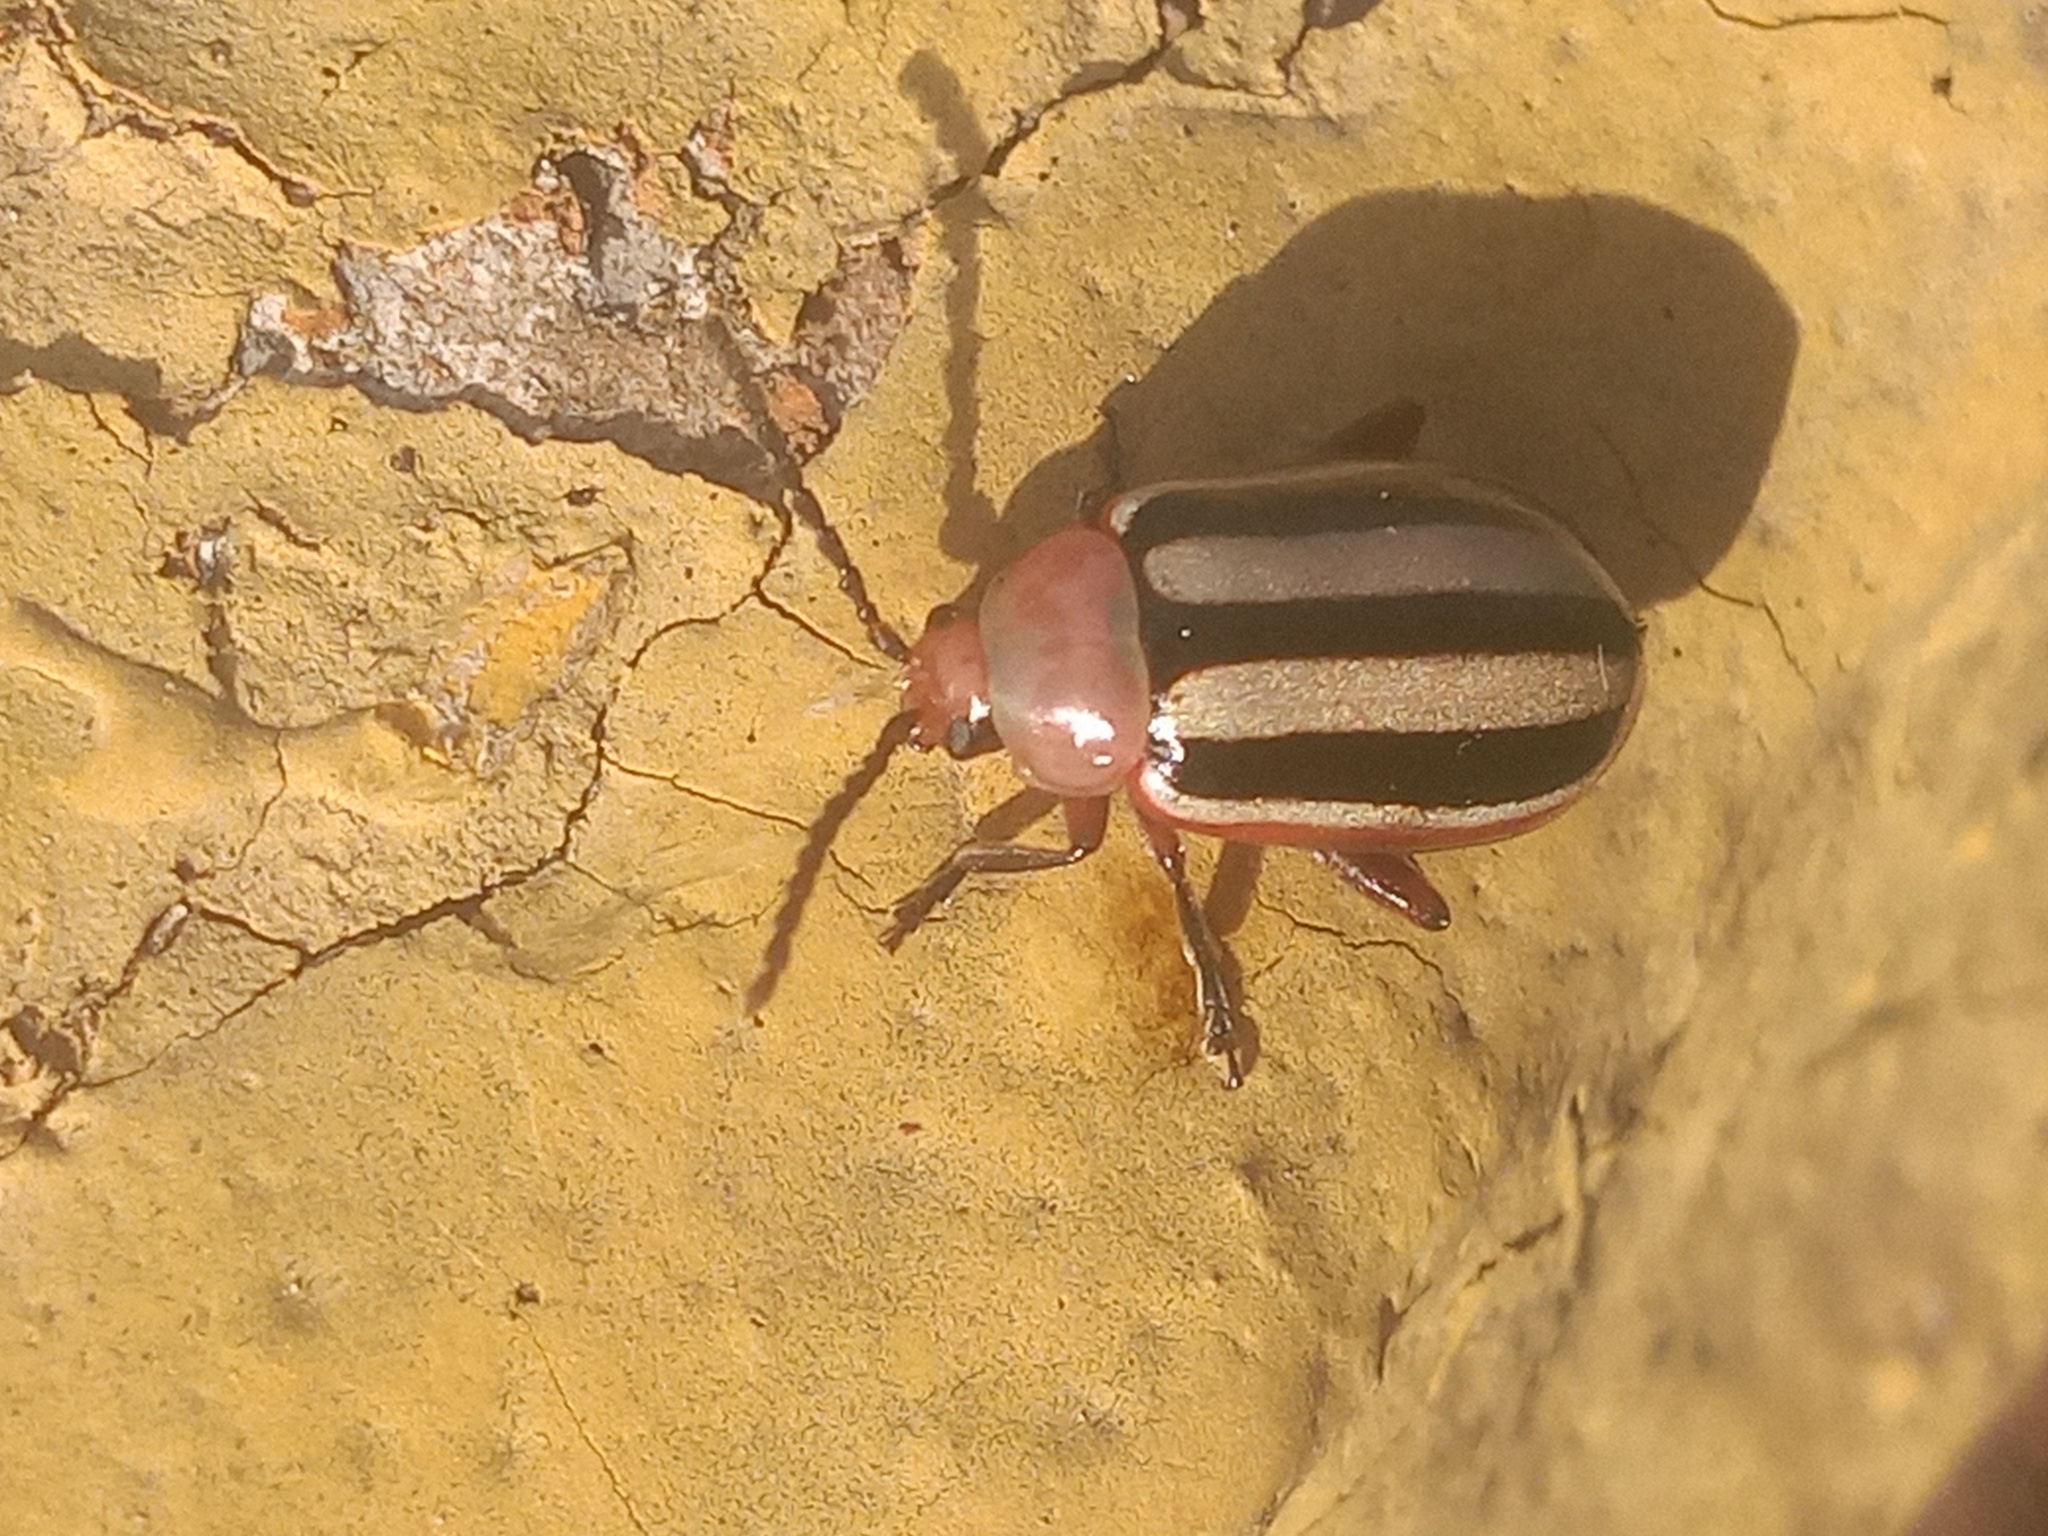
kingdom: Animalia
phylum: Arthropoda
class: Insecta
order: Coleoptera
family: Chrysomelidae
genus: Disonycha
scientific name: Disonycha leptolineata
